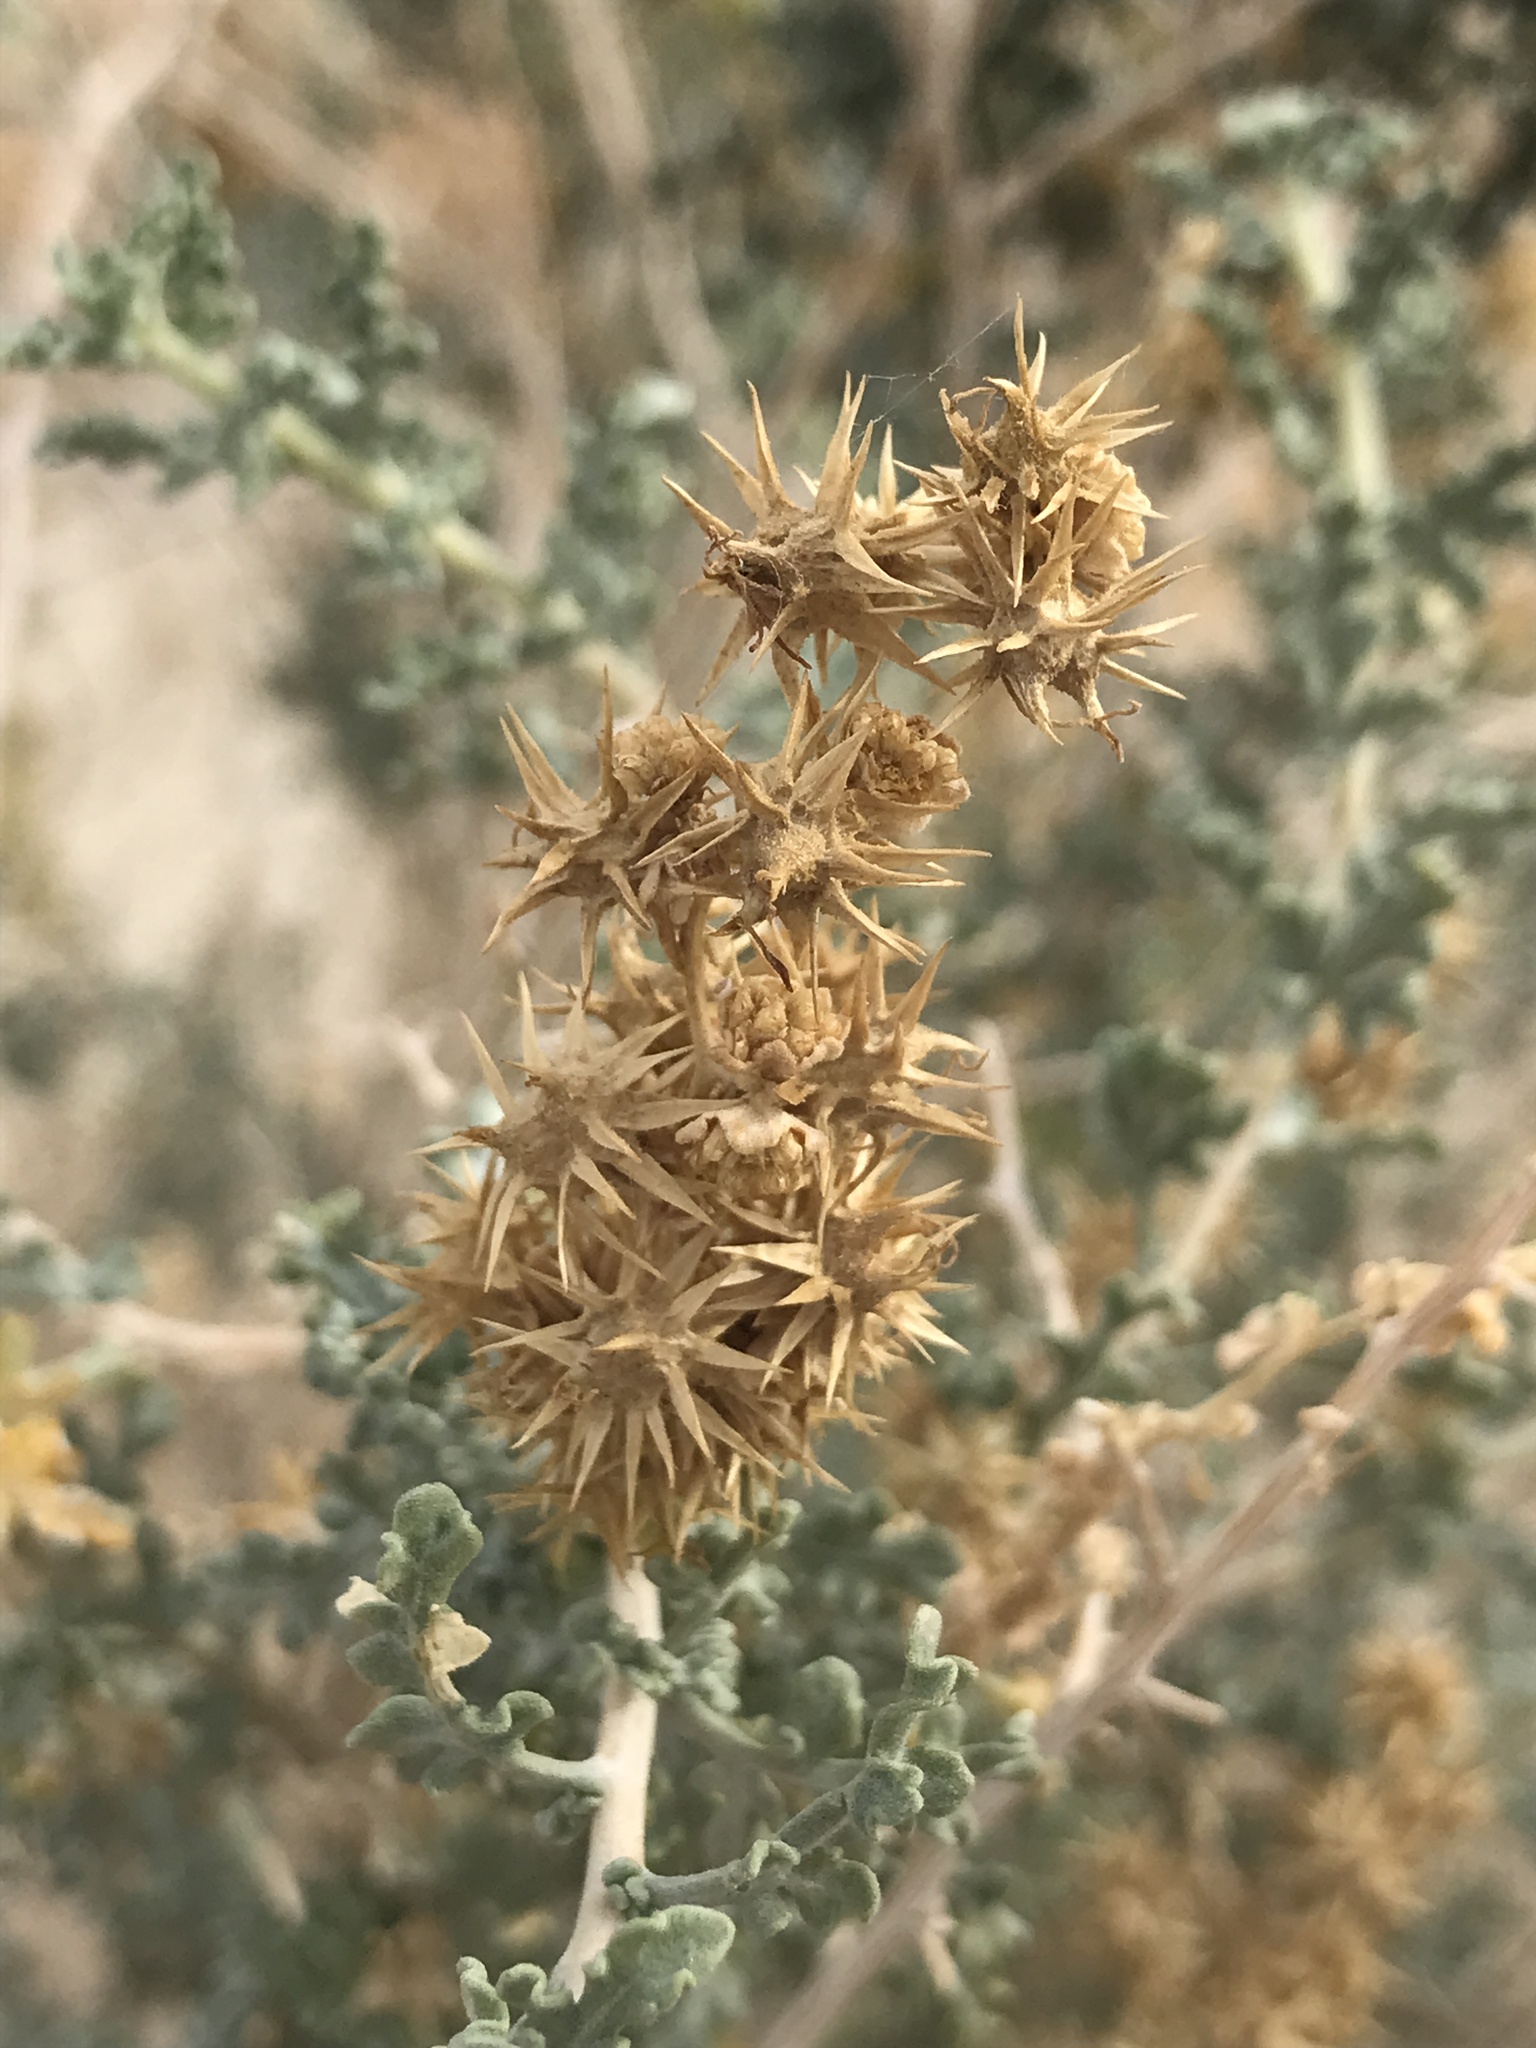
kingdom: Plantae
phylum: Tracheophyta
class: Magnoliopsida
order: Asterales
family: Asteraceae
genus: Ambrosia
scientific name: Ambrosia dumosa
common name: Bur-sage
